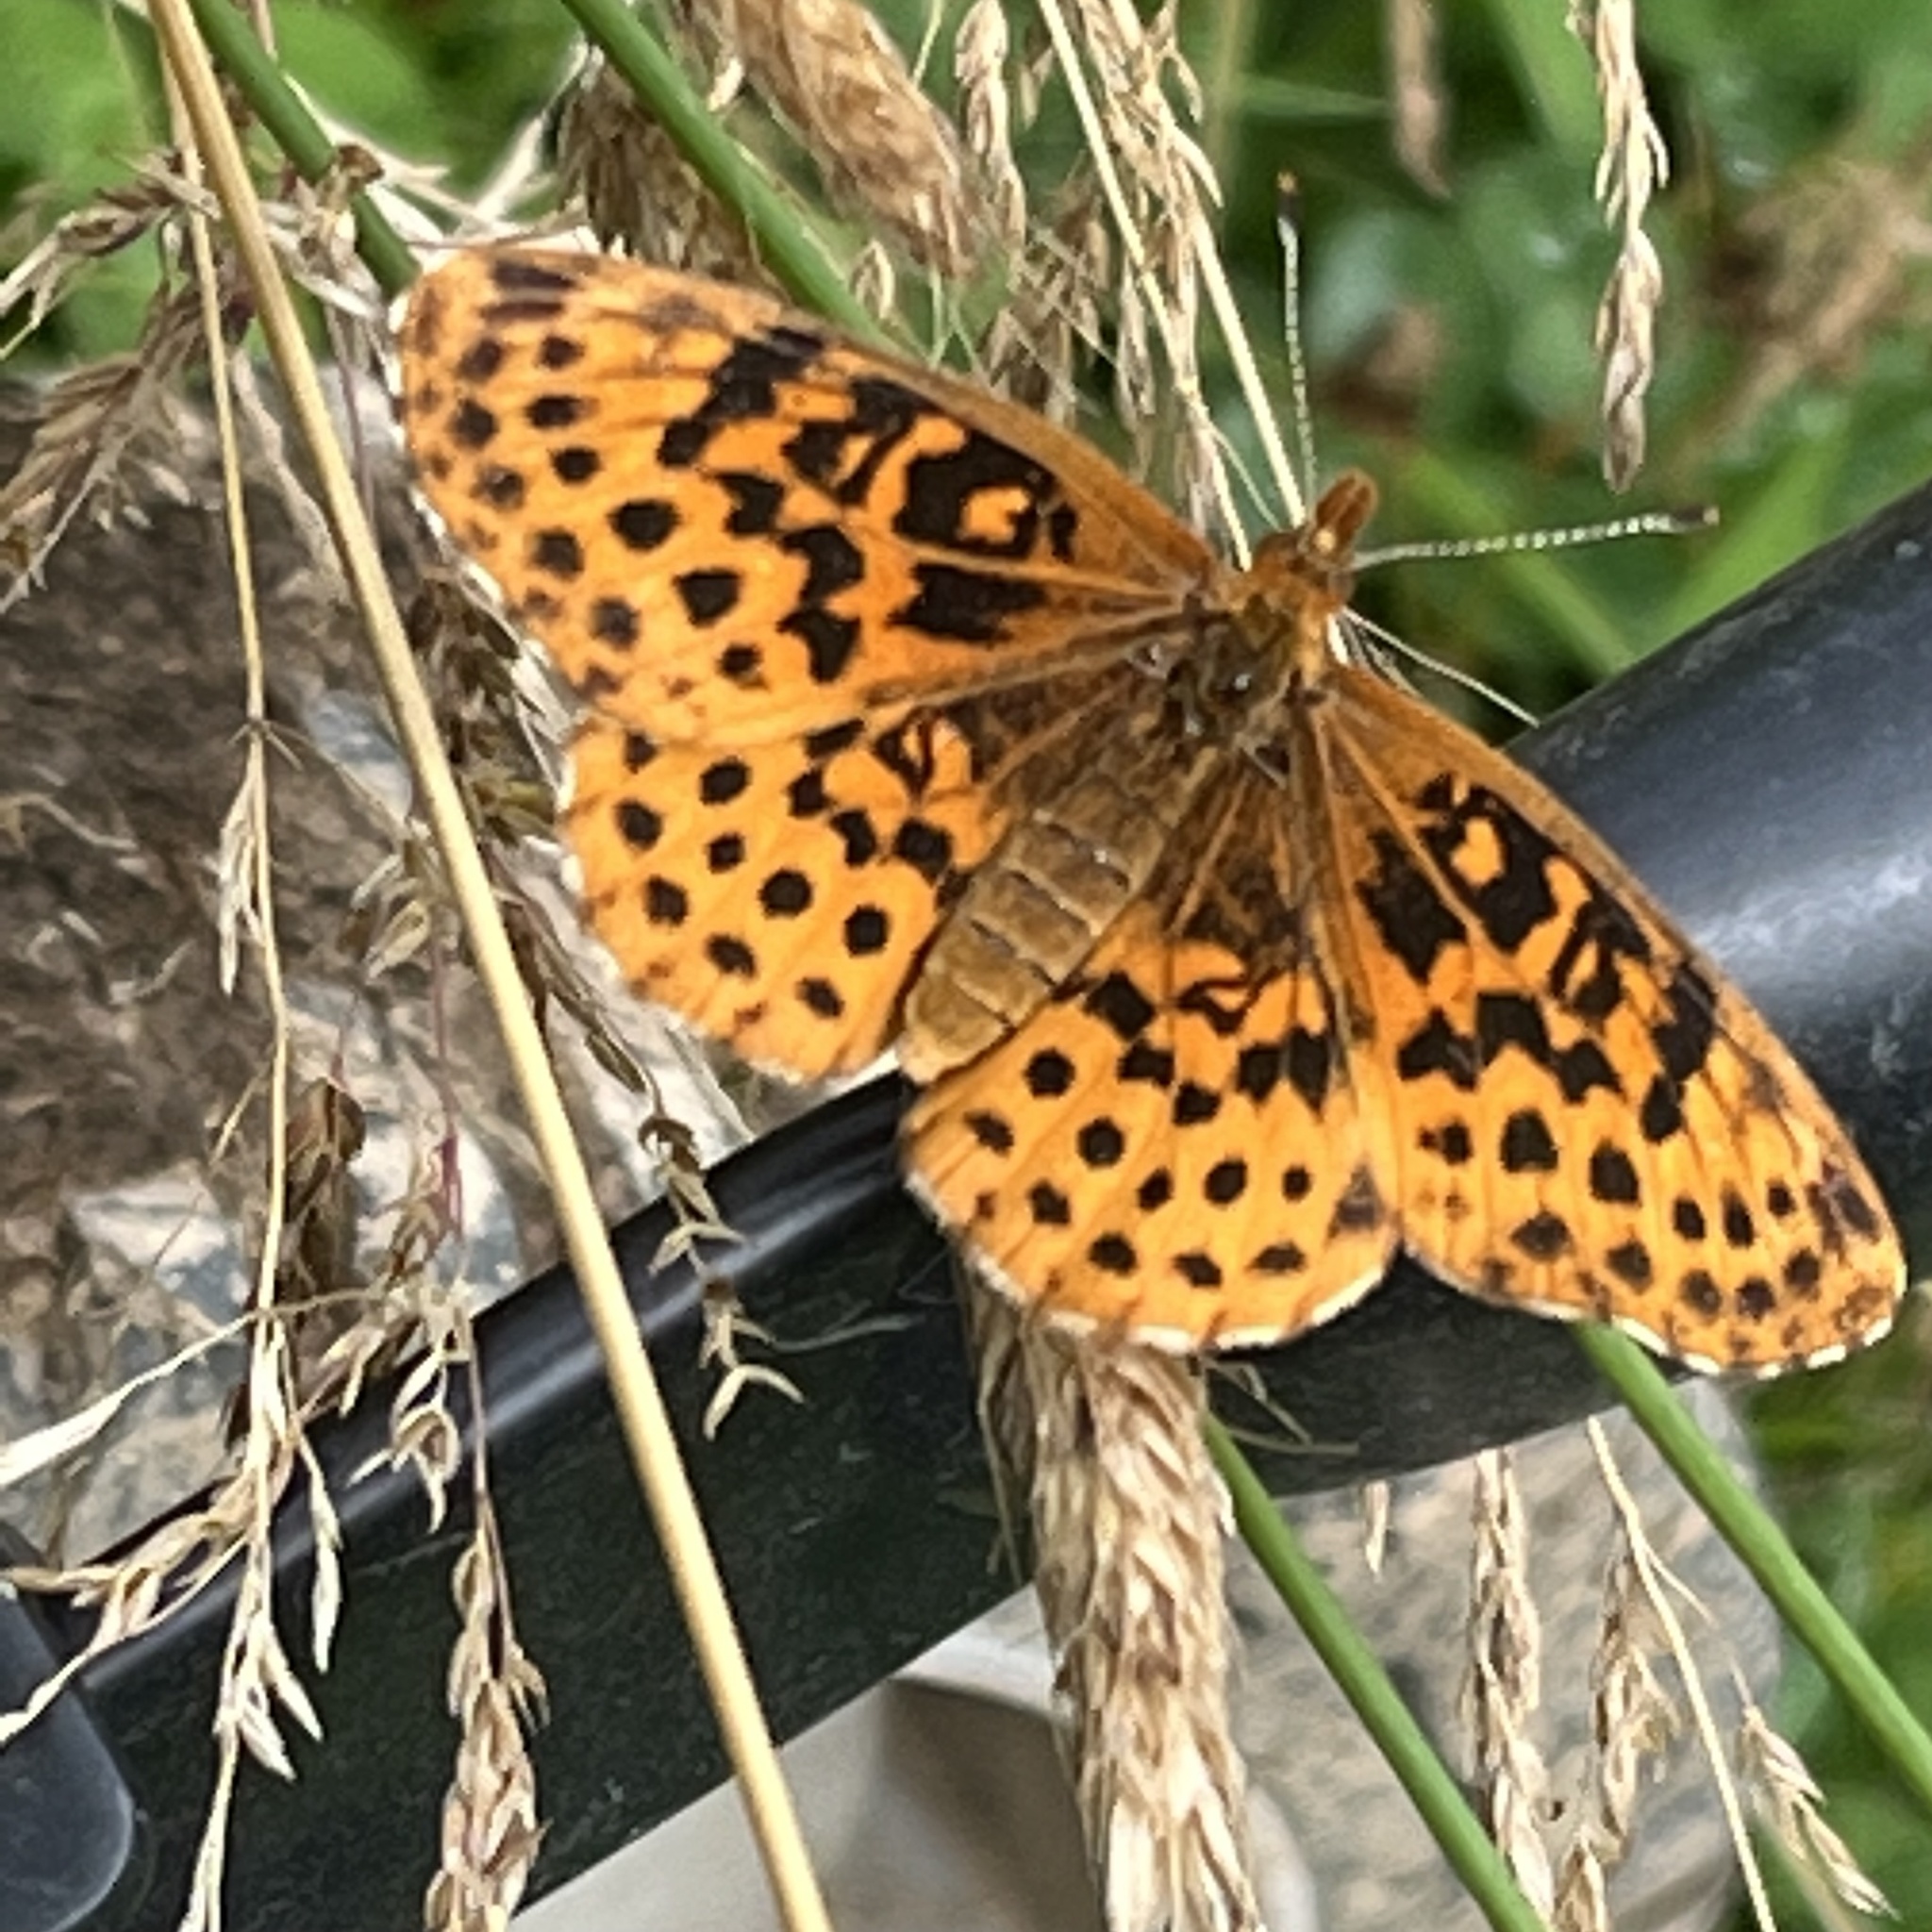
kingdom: Animalia
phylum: Arthropoda
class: Insecta
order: Lepidoptera
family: Nymphalidae
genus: Clossiana
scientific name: Clossiana toddi
